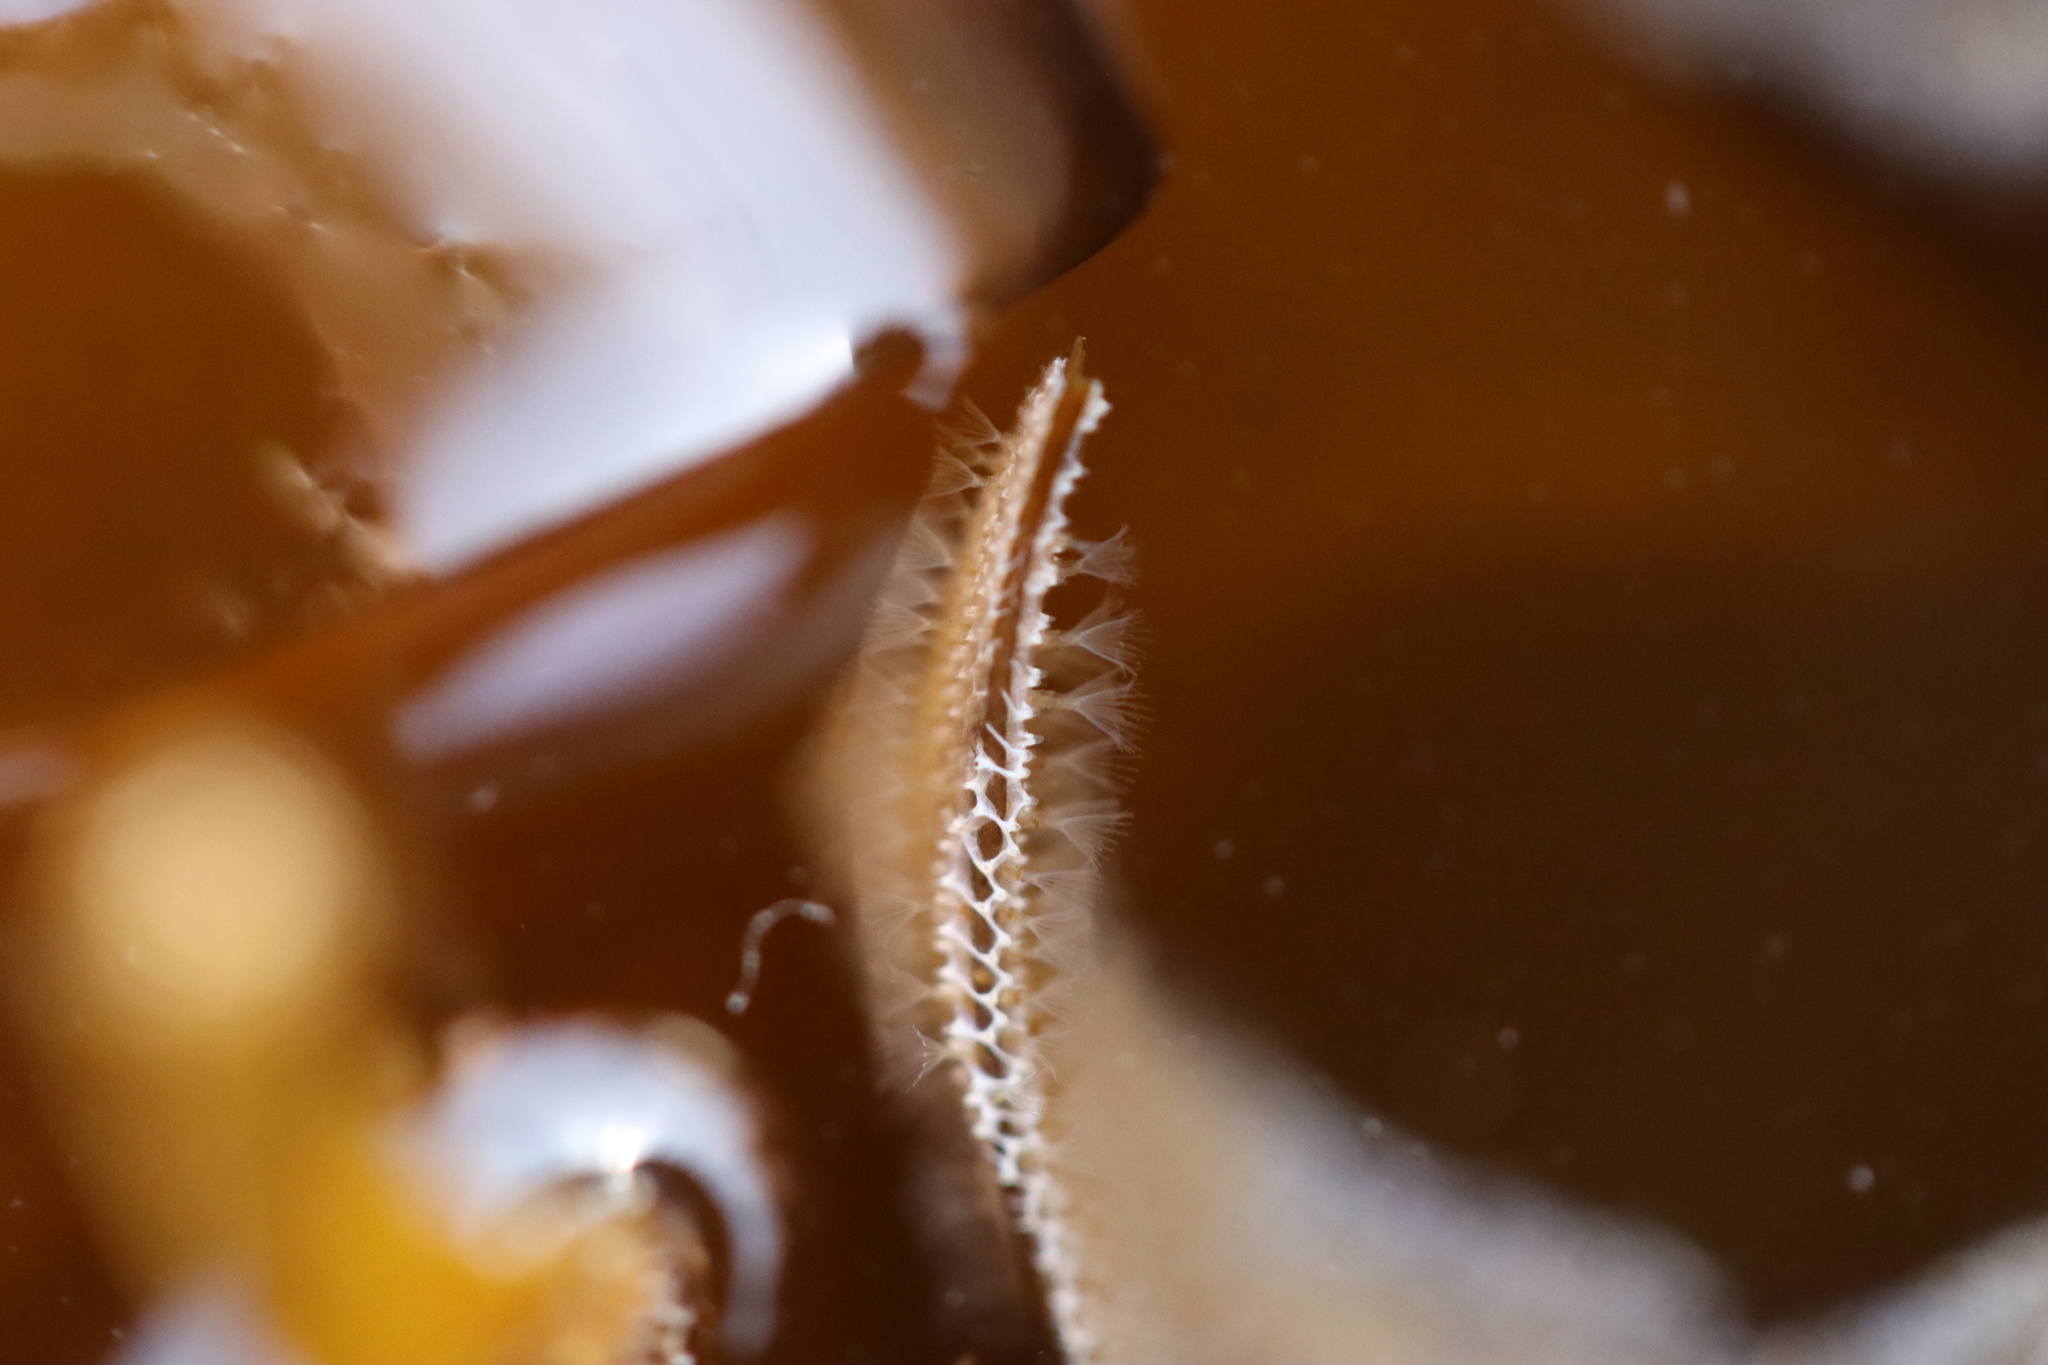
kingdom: Animalia
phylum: Bryozoa
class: Gymnolaemata
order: Cheilostomatida
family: Membraniporidae
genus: Membranipora
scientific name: Membranipora membranacea
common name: Sea mat
